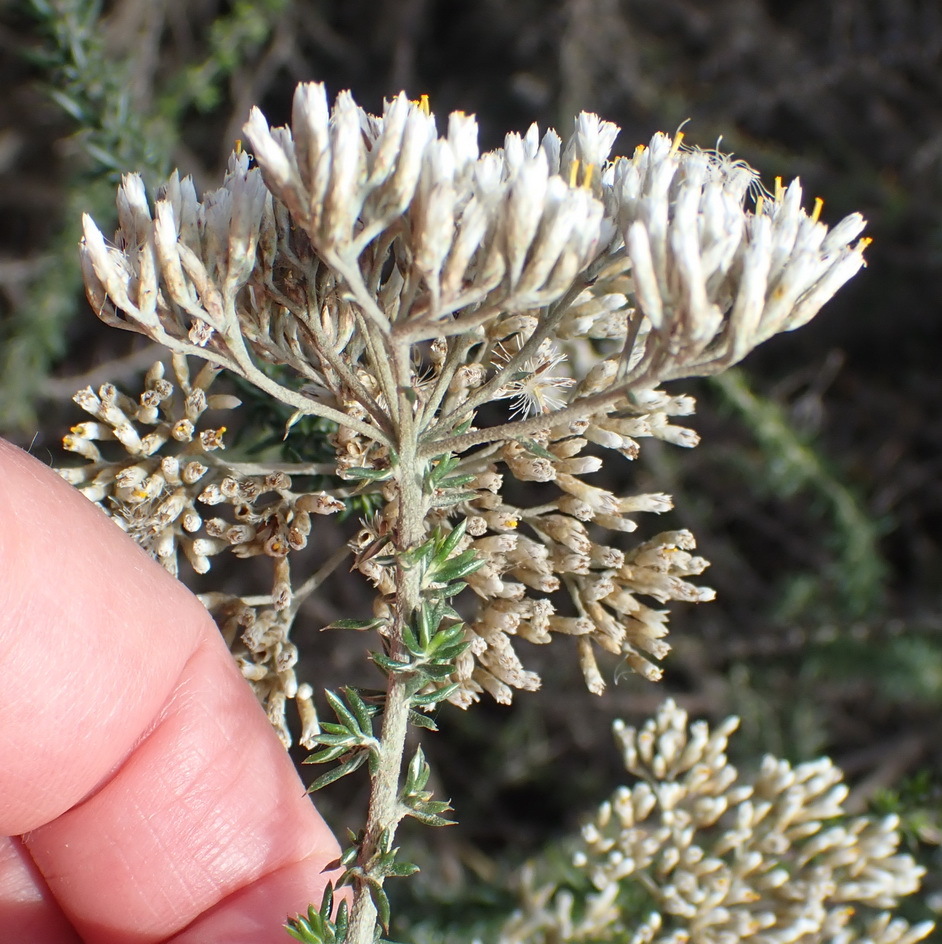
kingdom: Plantae
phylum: Tracheophyta
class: Magnoliopsida
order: Asterales
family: Asteraceae
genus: Metalasia
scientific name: Metalasia densa
